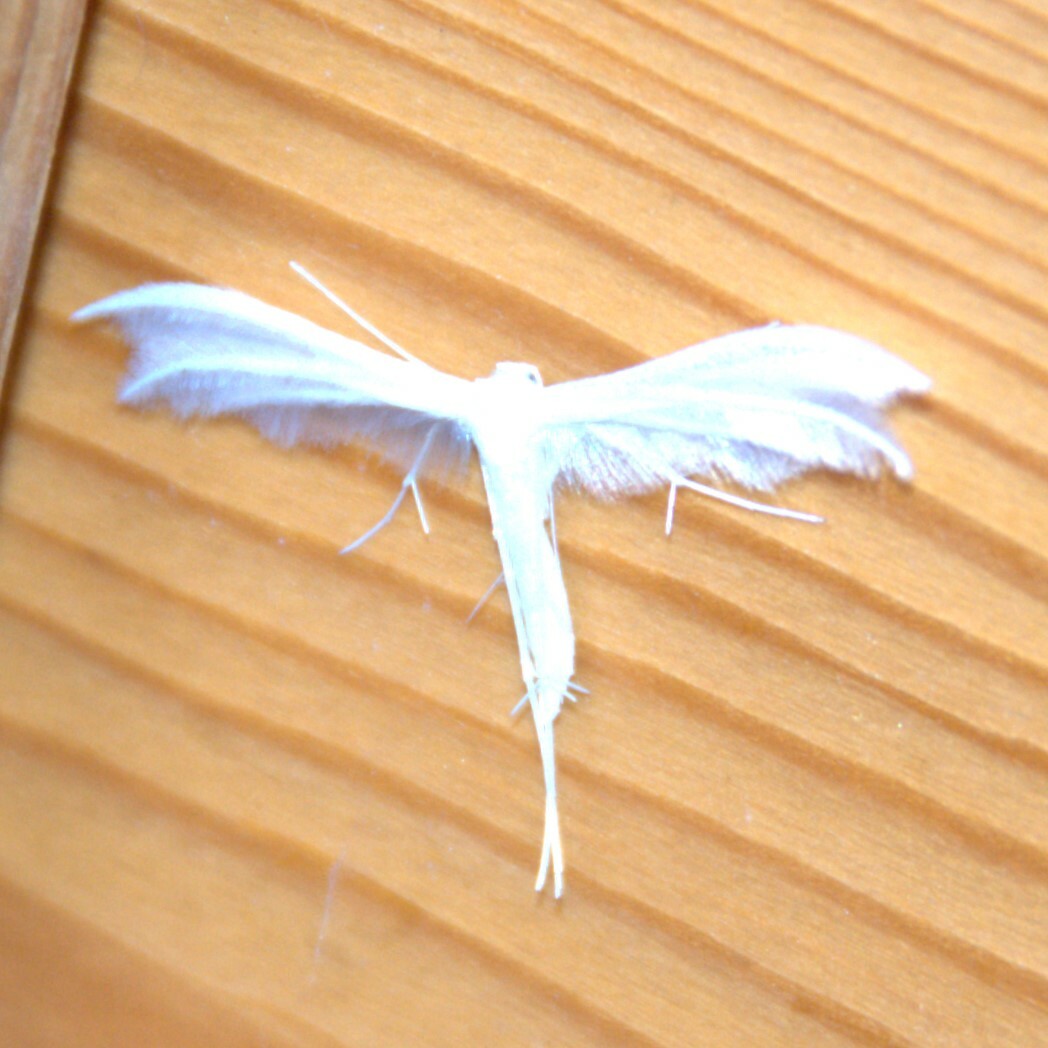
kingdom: Animalia
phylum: Arthropoda
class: Insecta
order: Lepidoptera
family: Pterophoridae
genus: Pterophorus
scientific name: Pterophorus pentadactyla
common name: White plume moth
